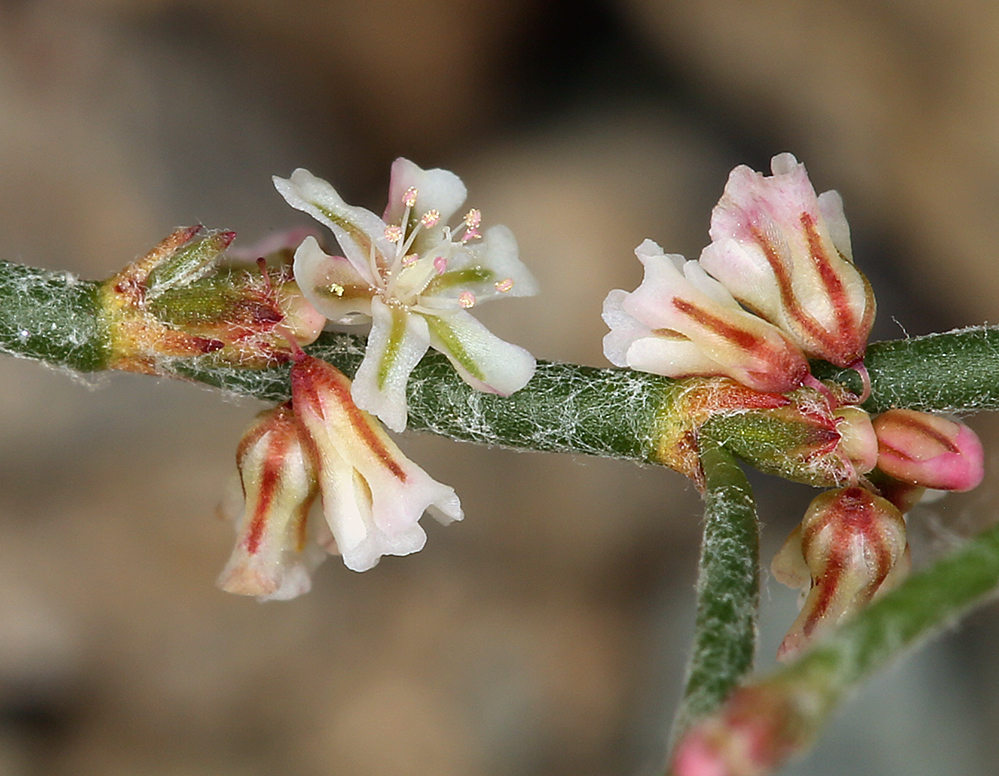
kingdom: Plantae
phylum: Tracheophyta
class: Magnoliopsida
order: Caryophyllales
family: Polygonaceae
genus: Eriogonum
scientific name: Eriogonum palmerianum
